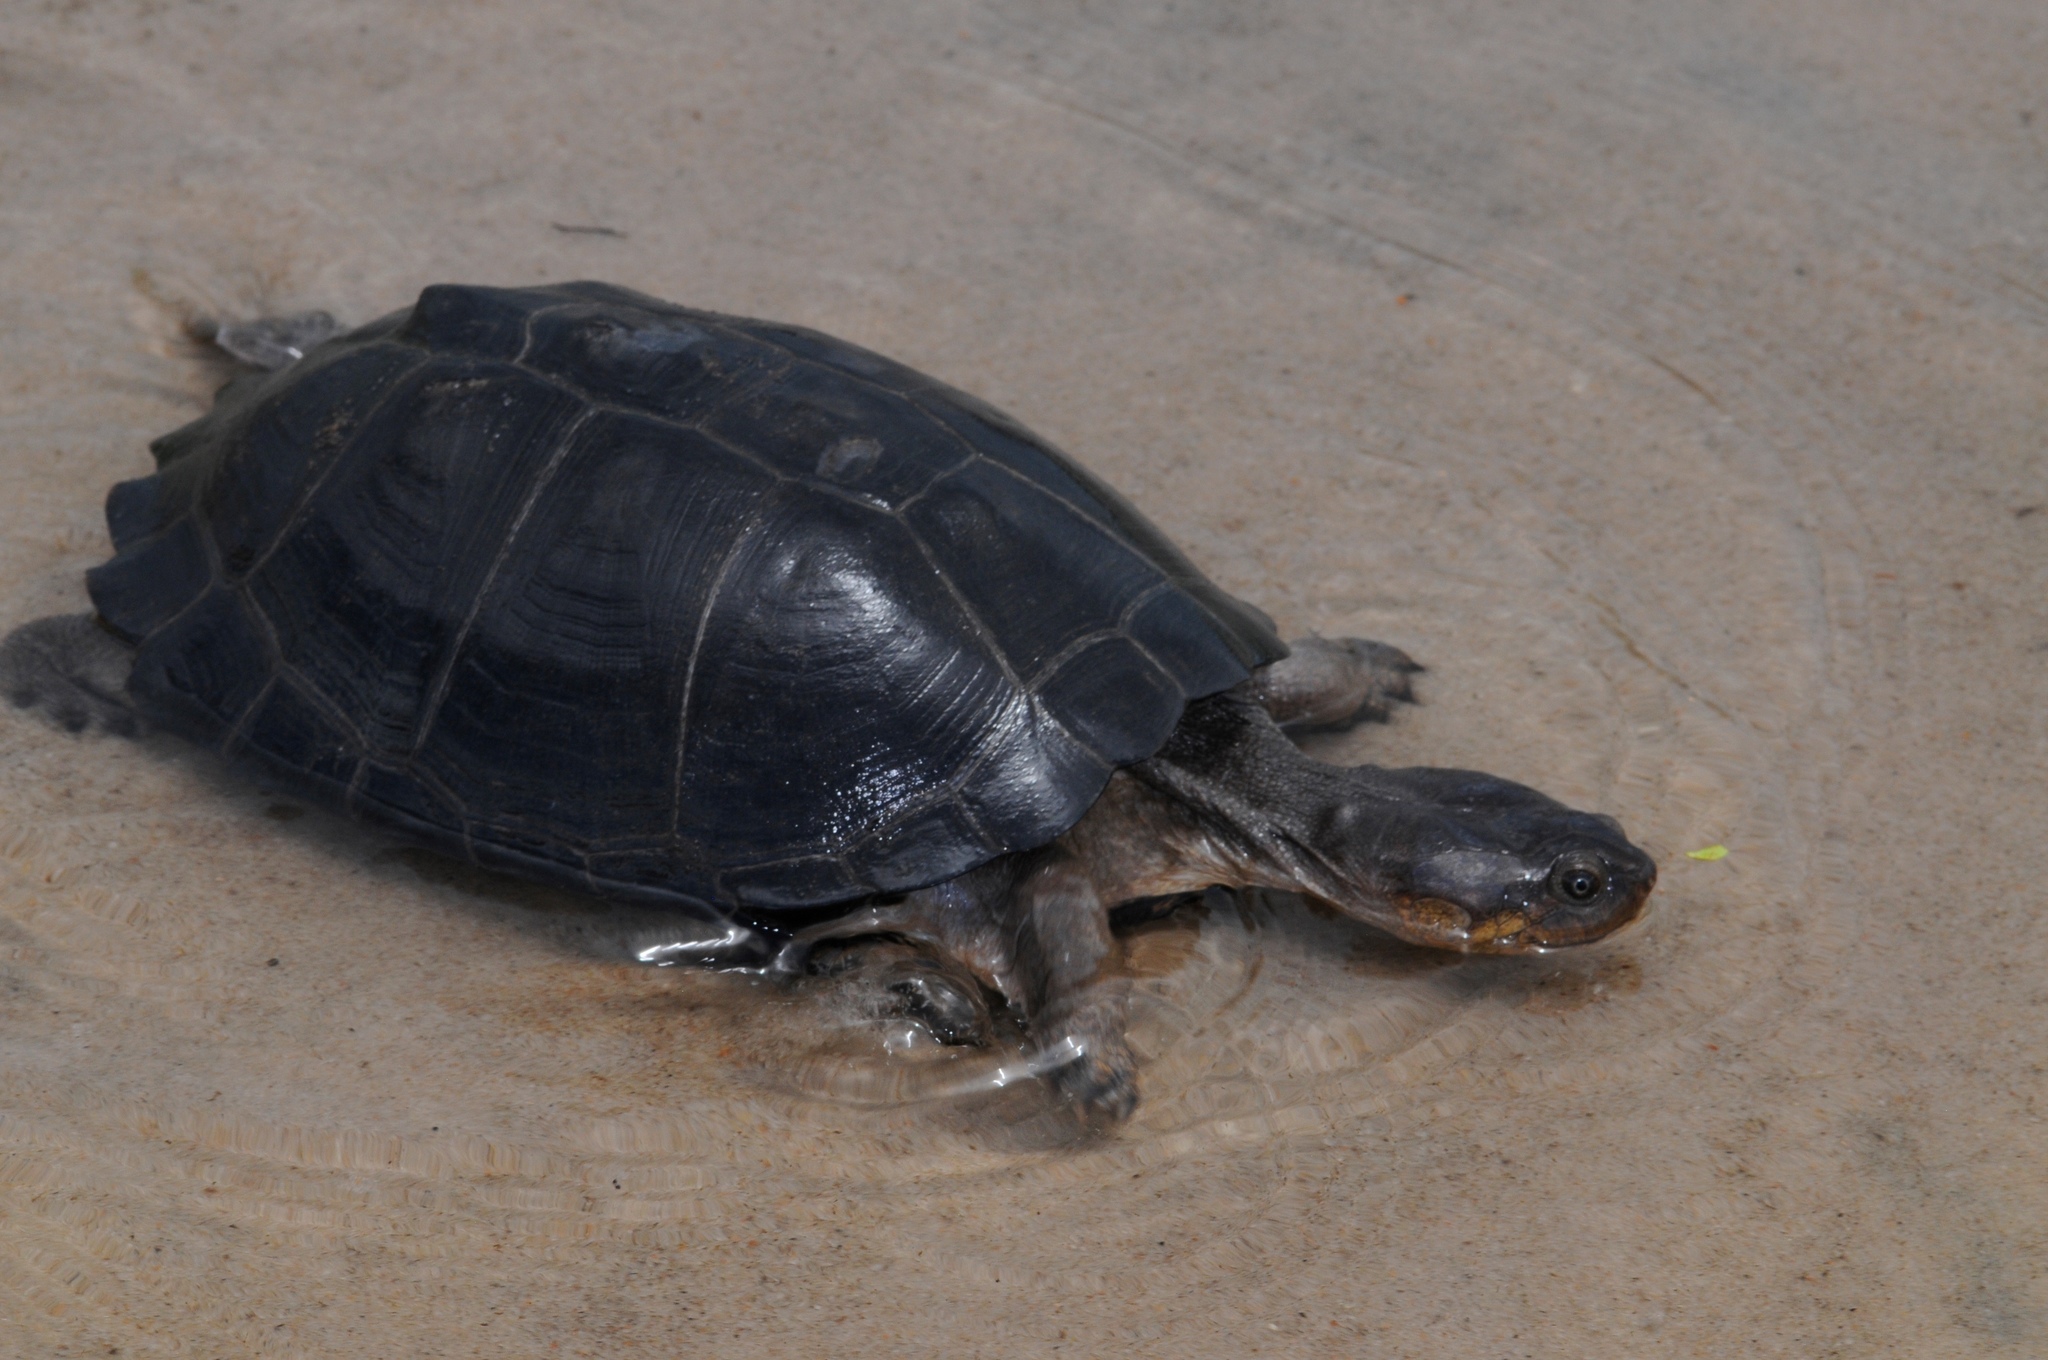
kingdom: Animalia
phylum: Chordata
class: Testudines
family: Pelomedusidae
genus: Pelusios
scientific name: Pelusios sinuatus
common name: Serrated hinged terrapin
